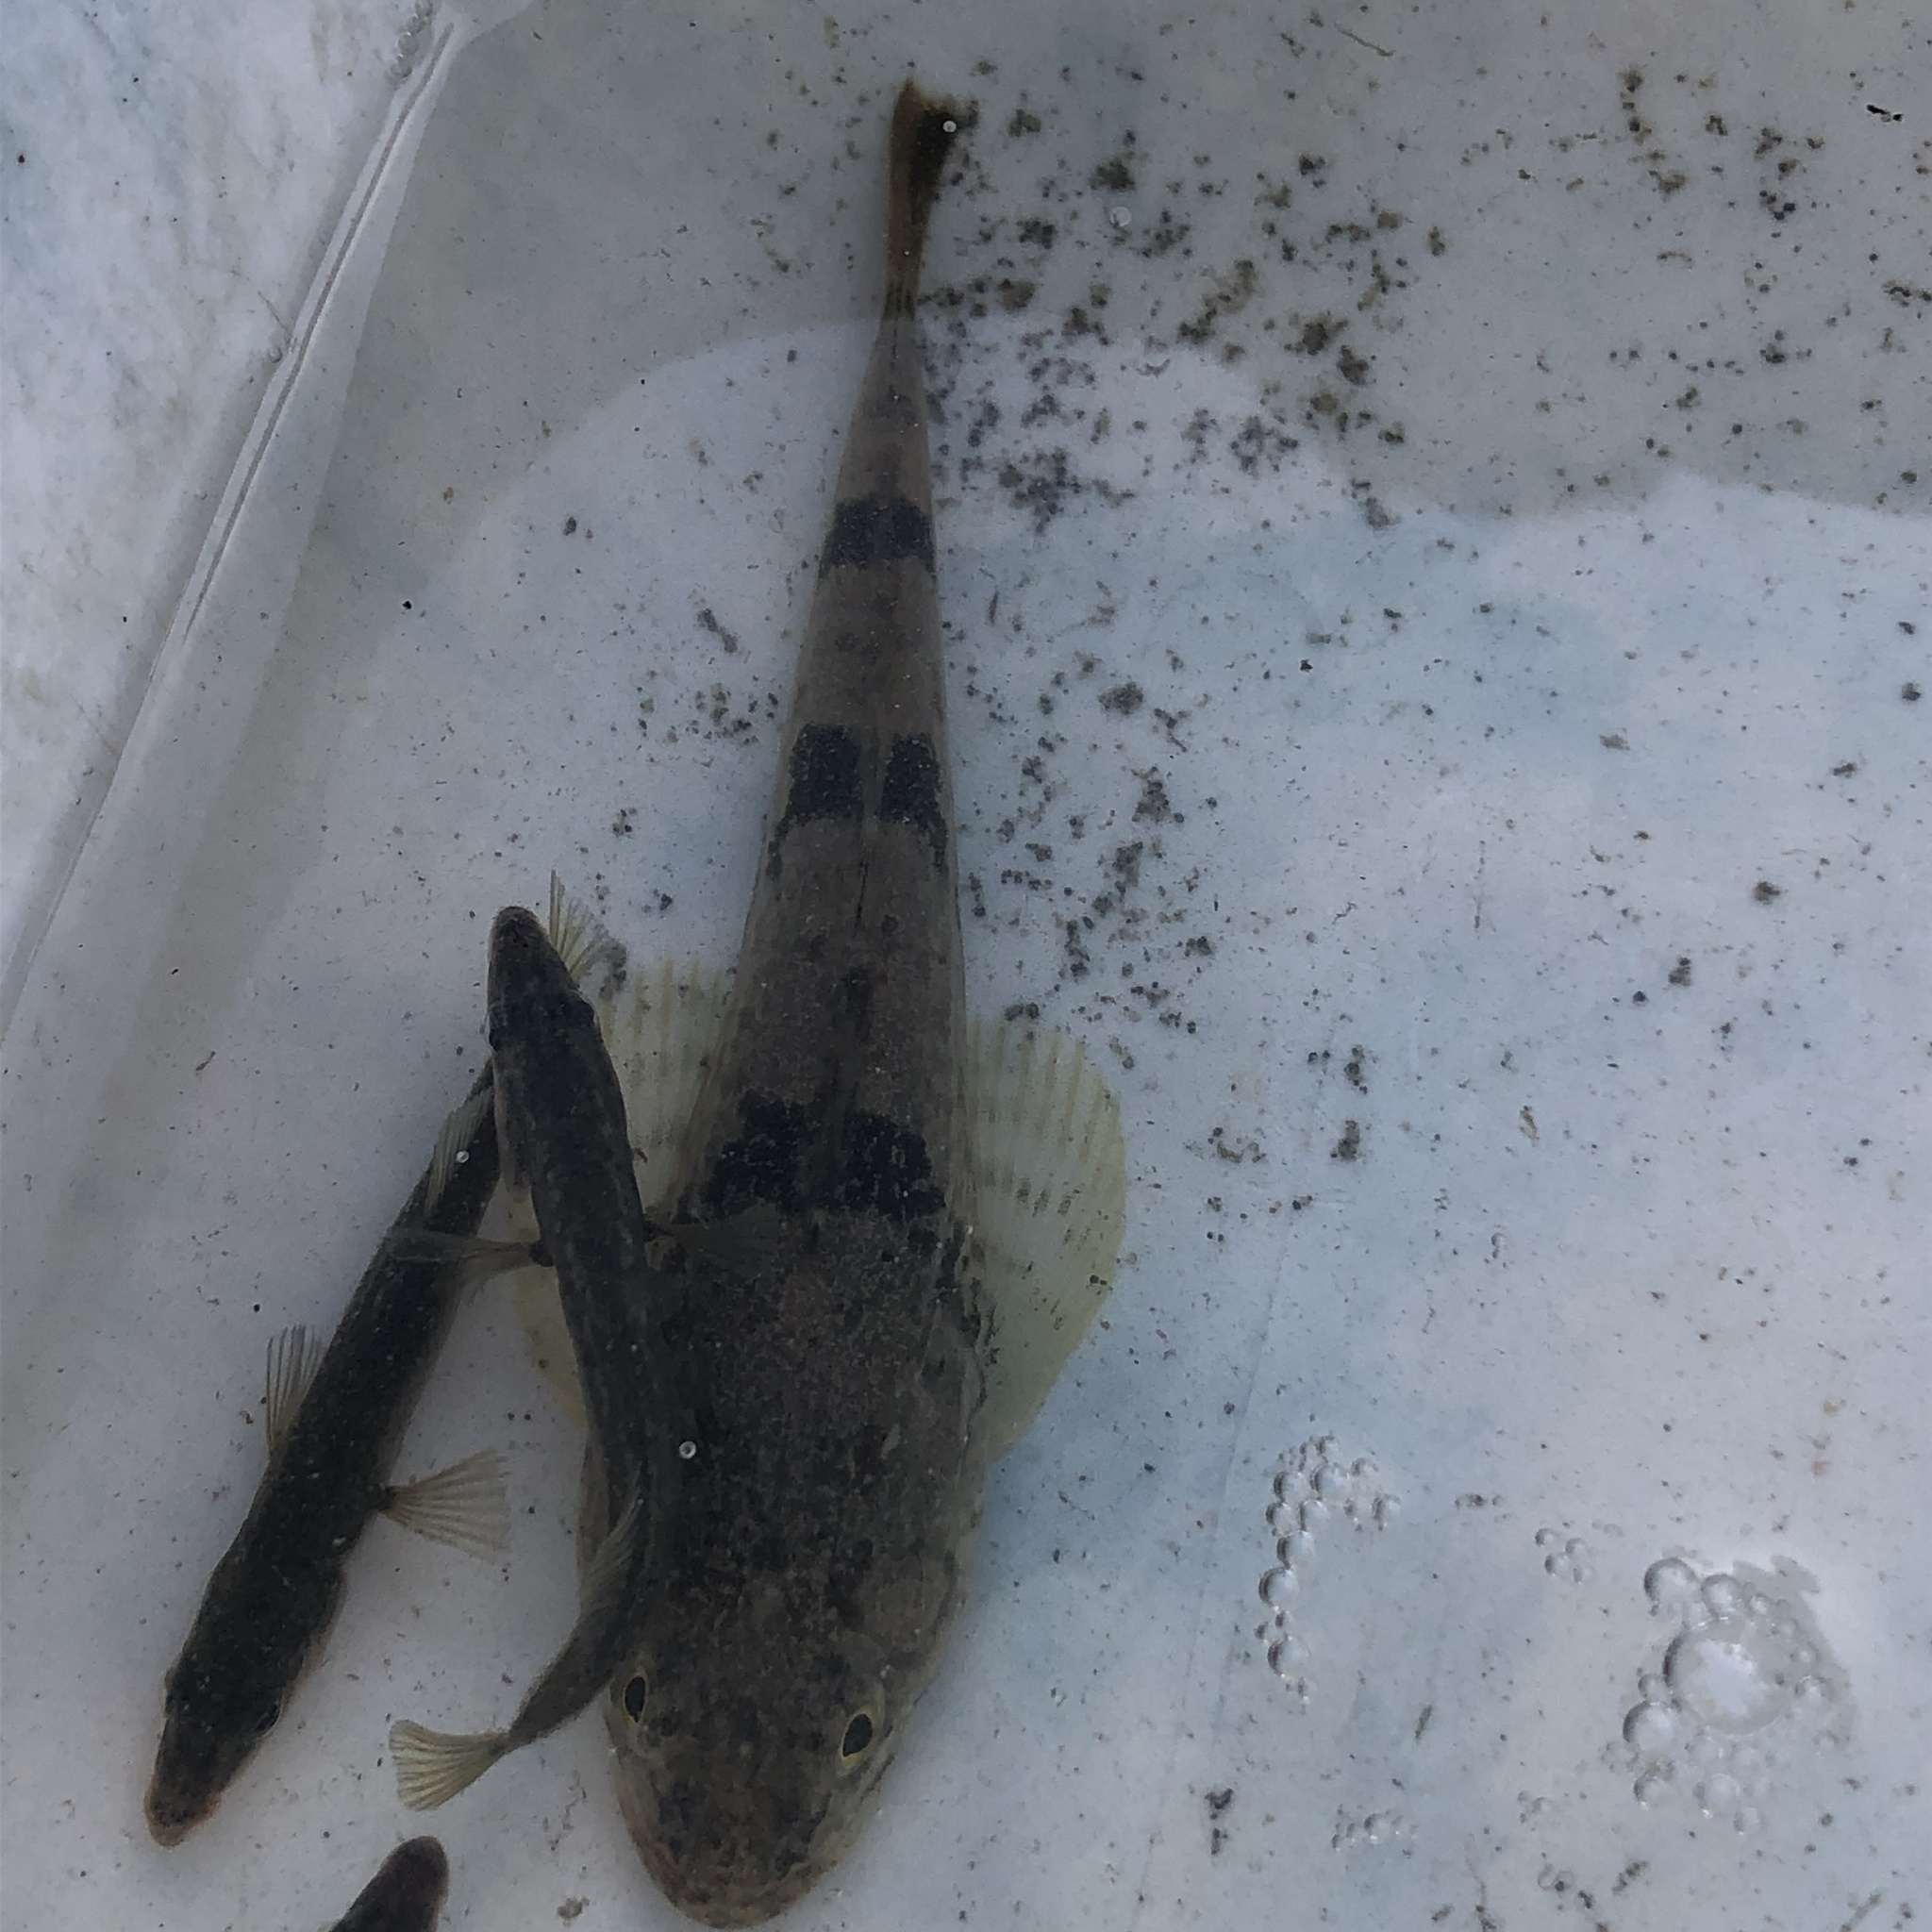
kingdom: Animalia
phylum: Chordata
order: Scorpaeniformes
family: Cottidae
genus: Leptocottus
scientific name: Leptocottus armatus
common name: Pacific staghorn sculpin
